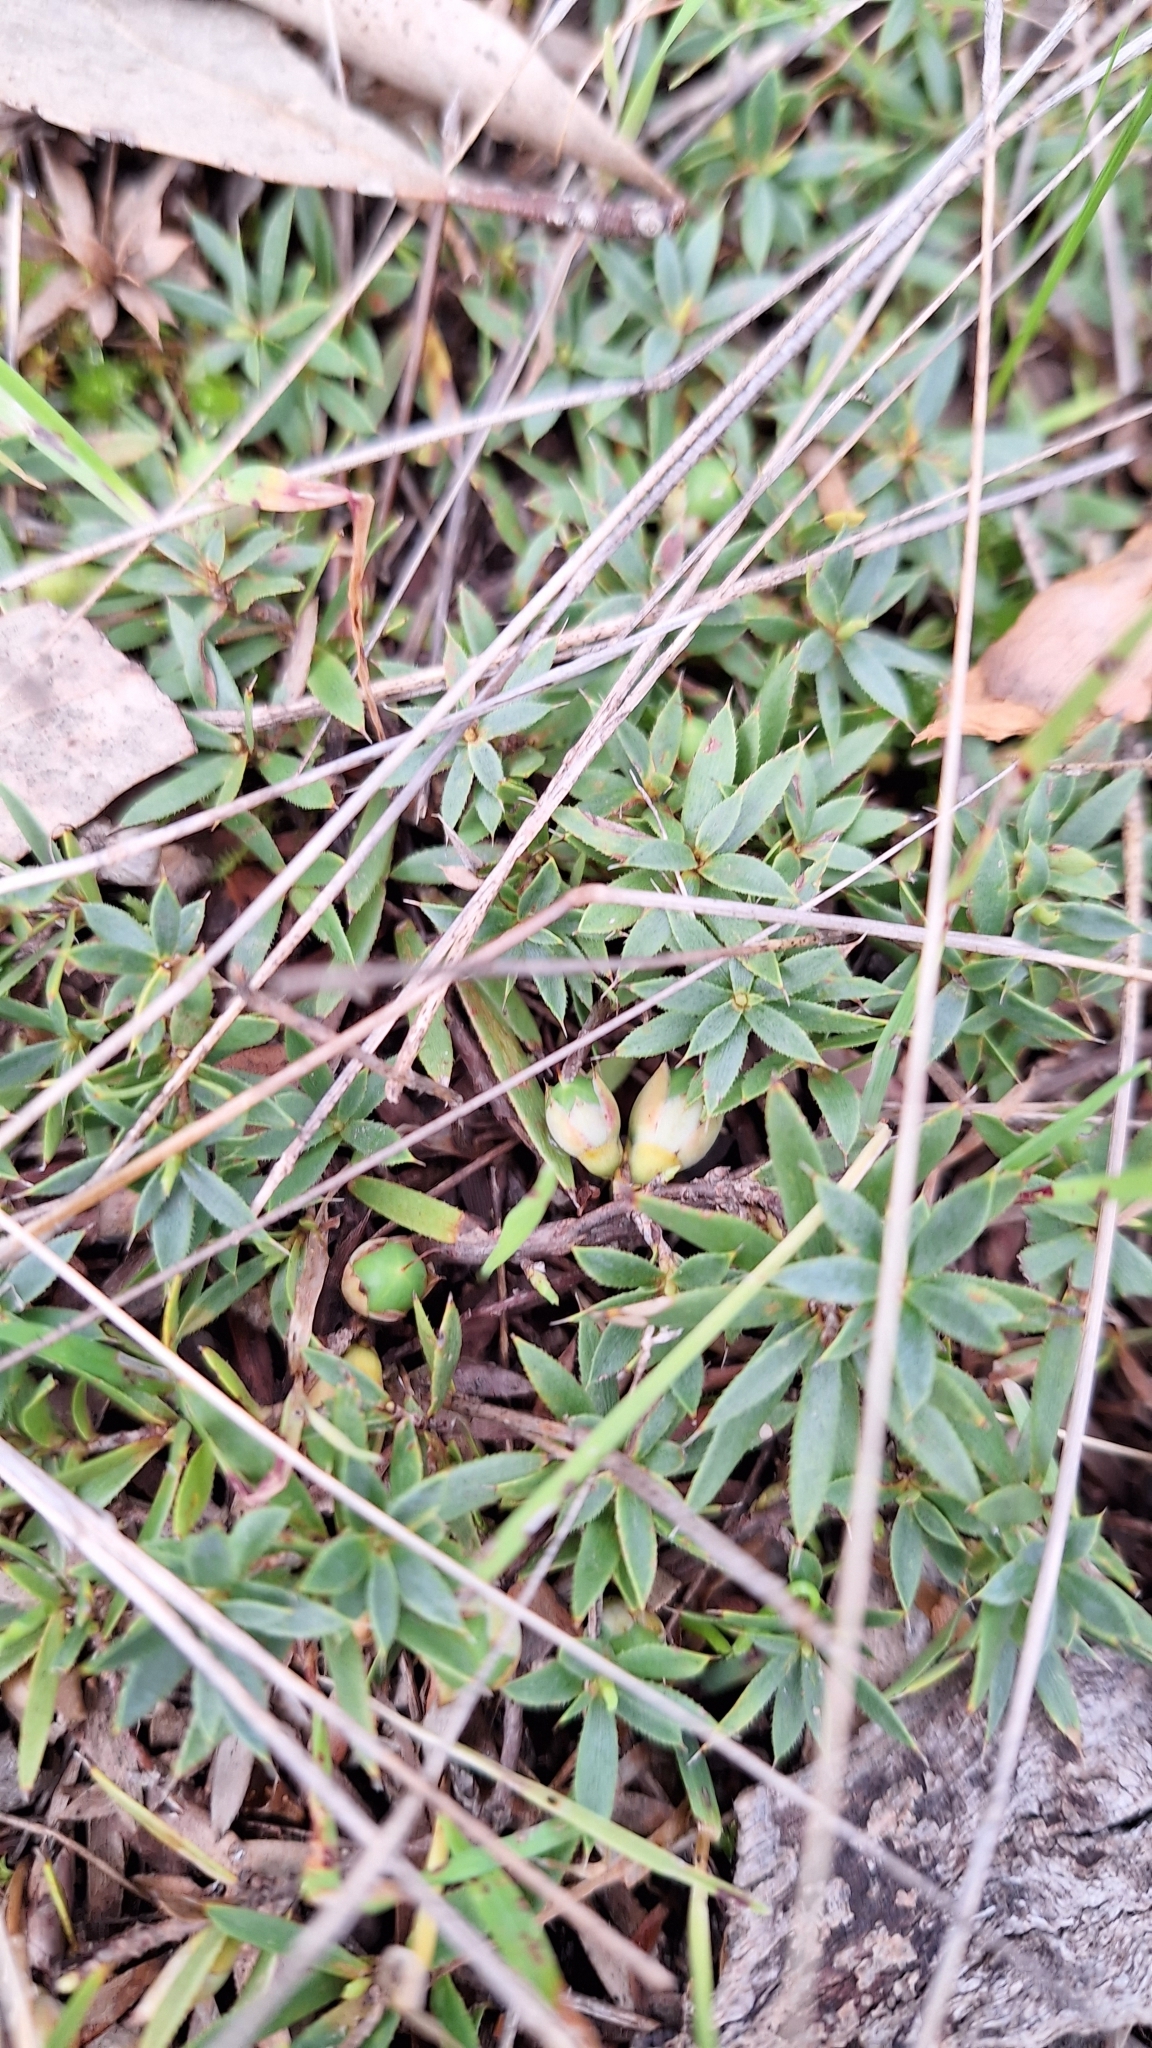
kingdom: Plantae
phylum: Tracheophyta
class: Magnoliopsida
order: Ericales
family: Ericaceae
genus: Styphelia
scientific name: Styphelia humifusa
